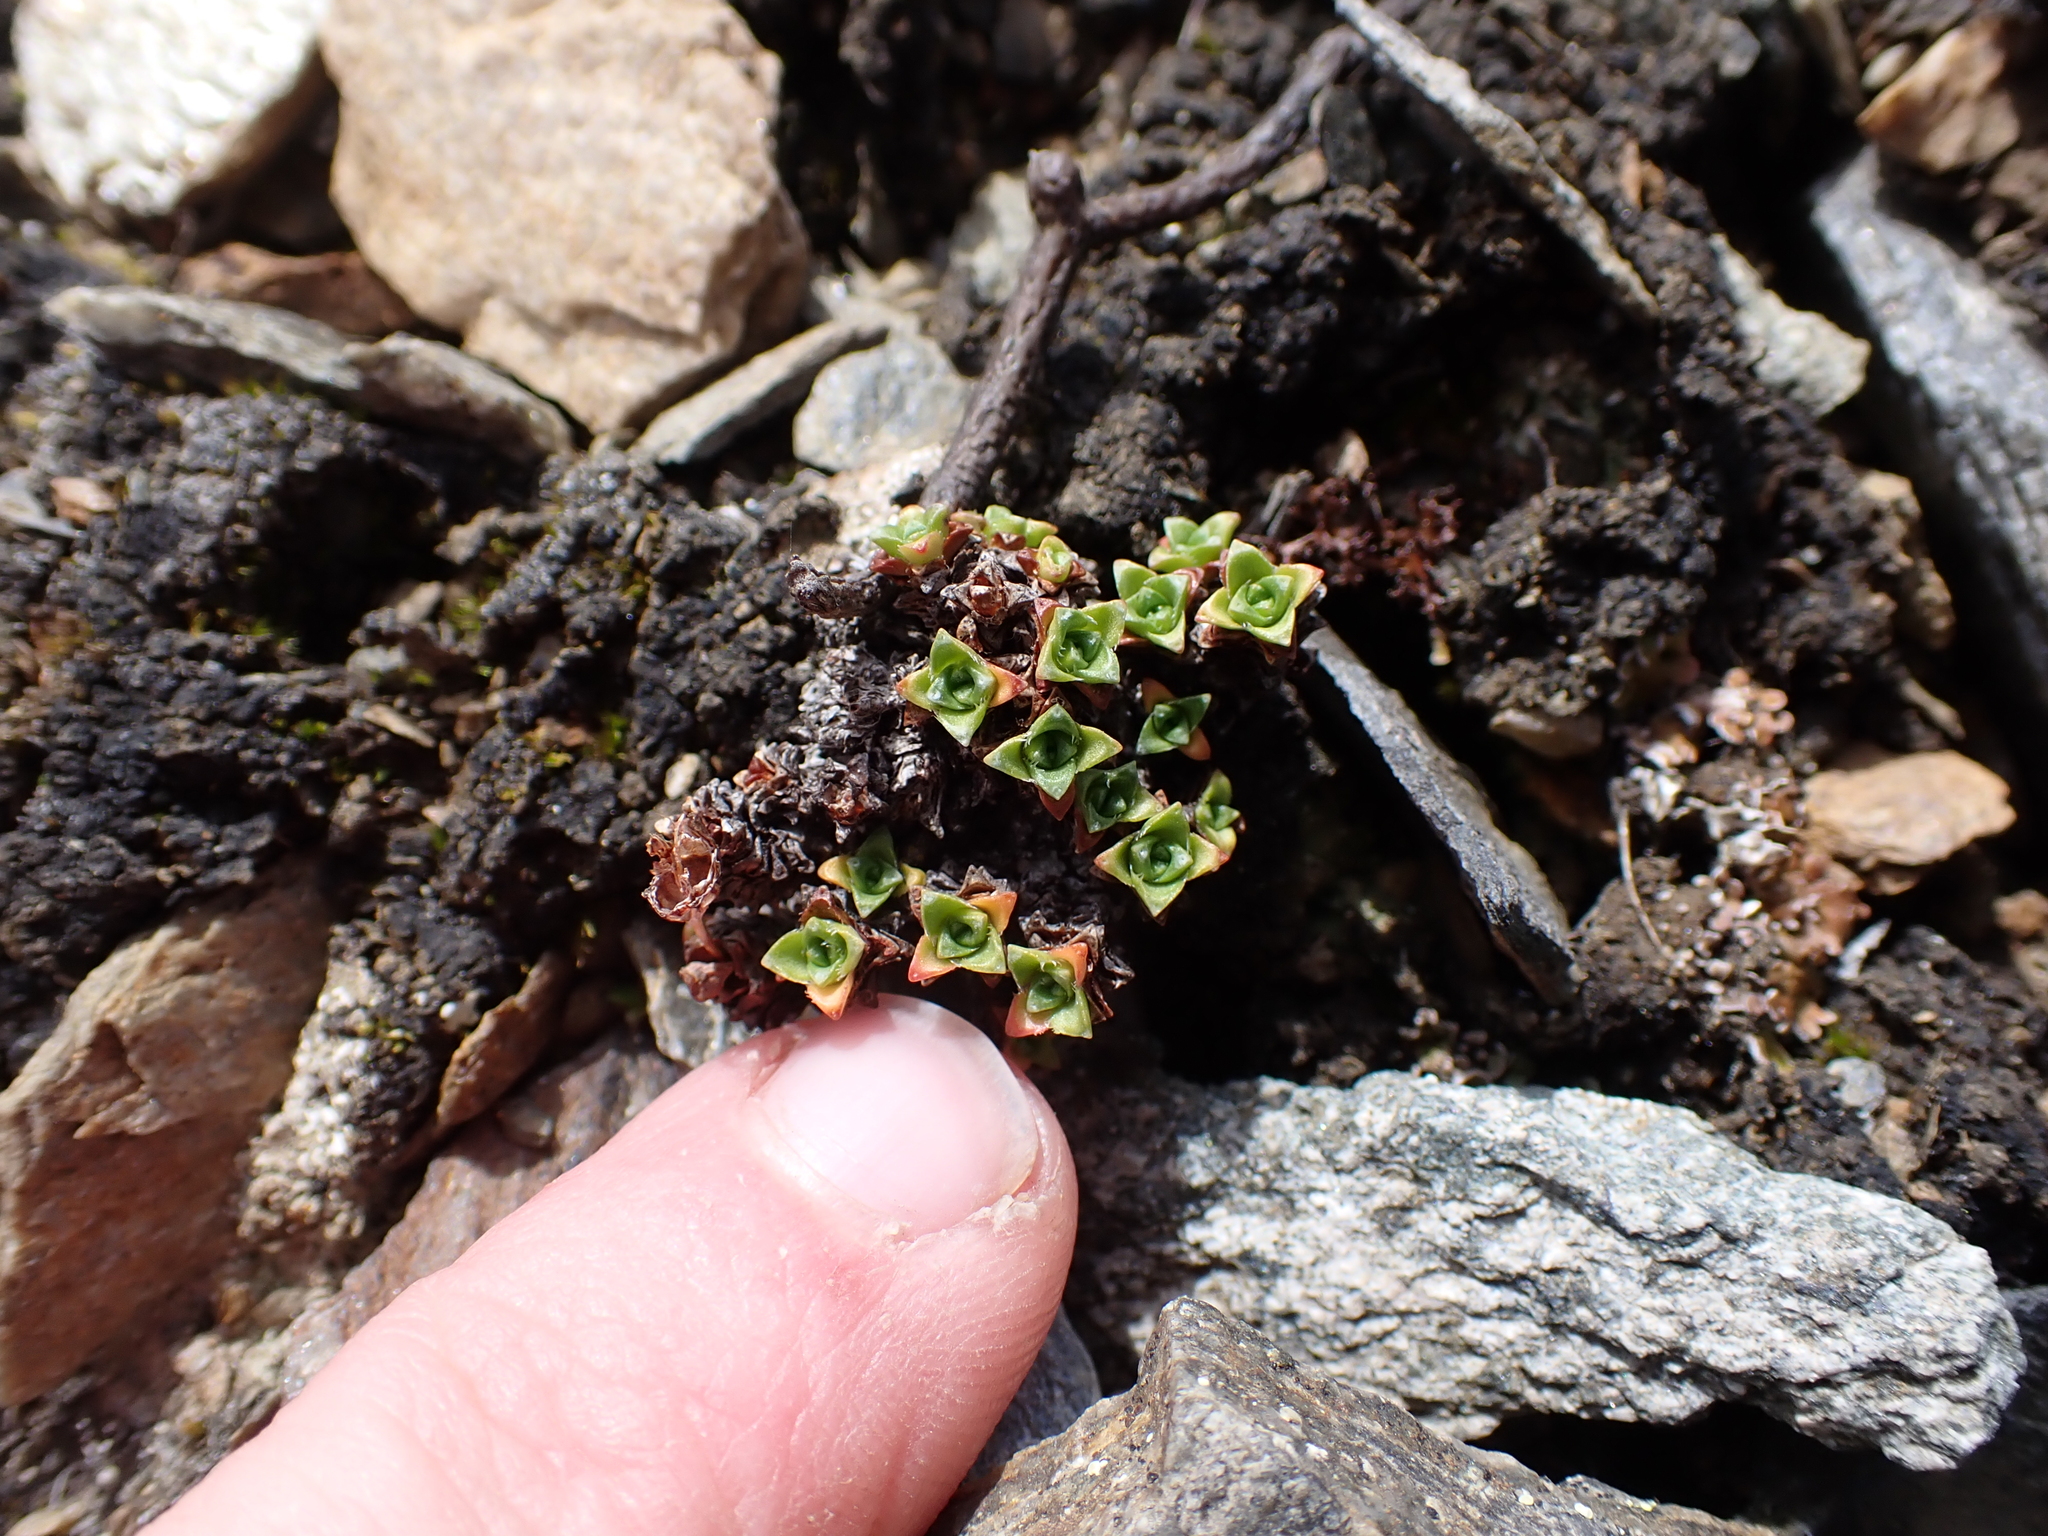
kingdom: Plantae
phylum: Tracheophyta
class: Magnoliopsida
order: Saxifragales
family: Saxifragaceae
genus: Saxifraga
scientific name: Saxifraga oppositifolia
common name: Purple saxifrage
